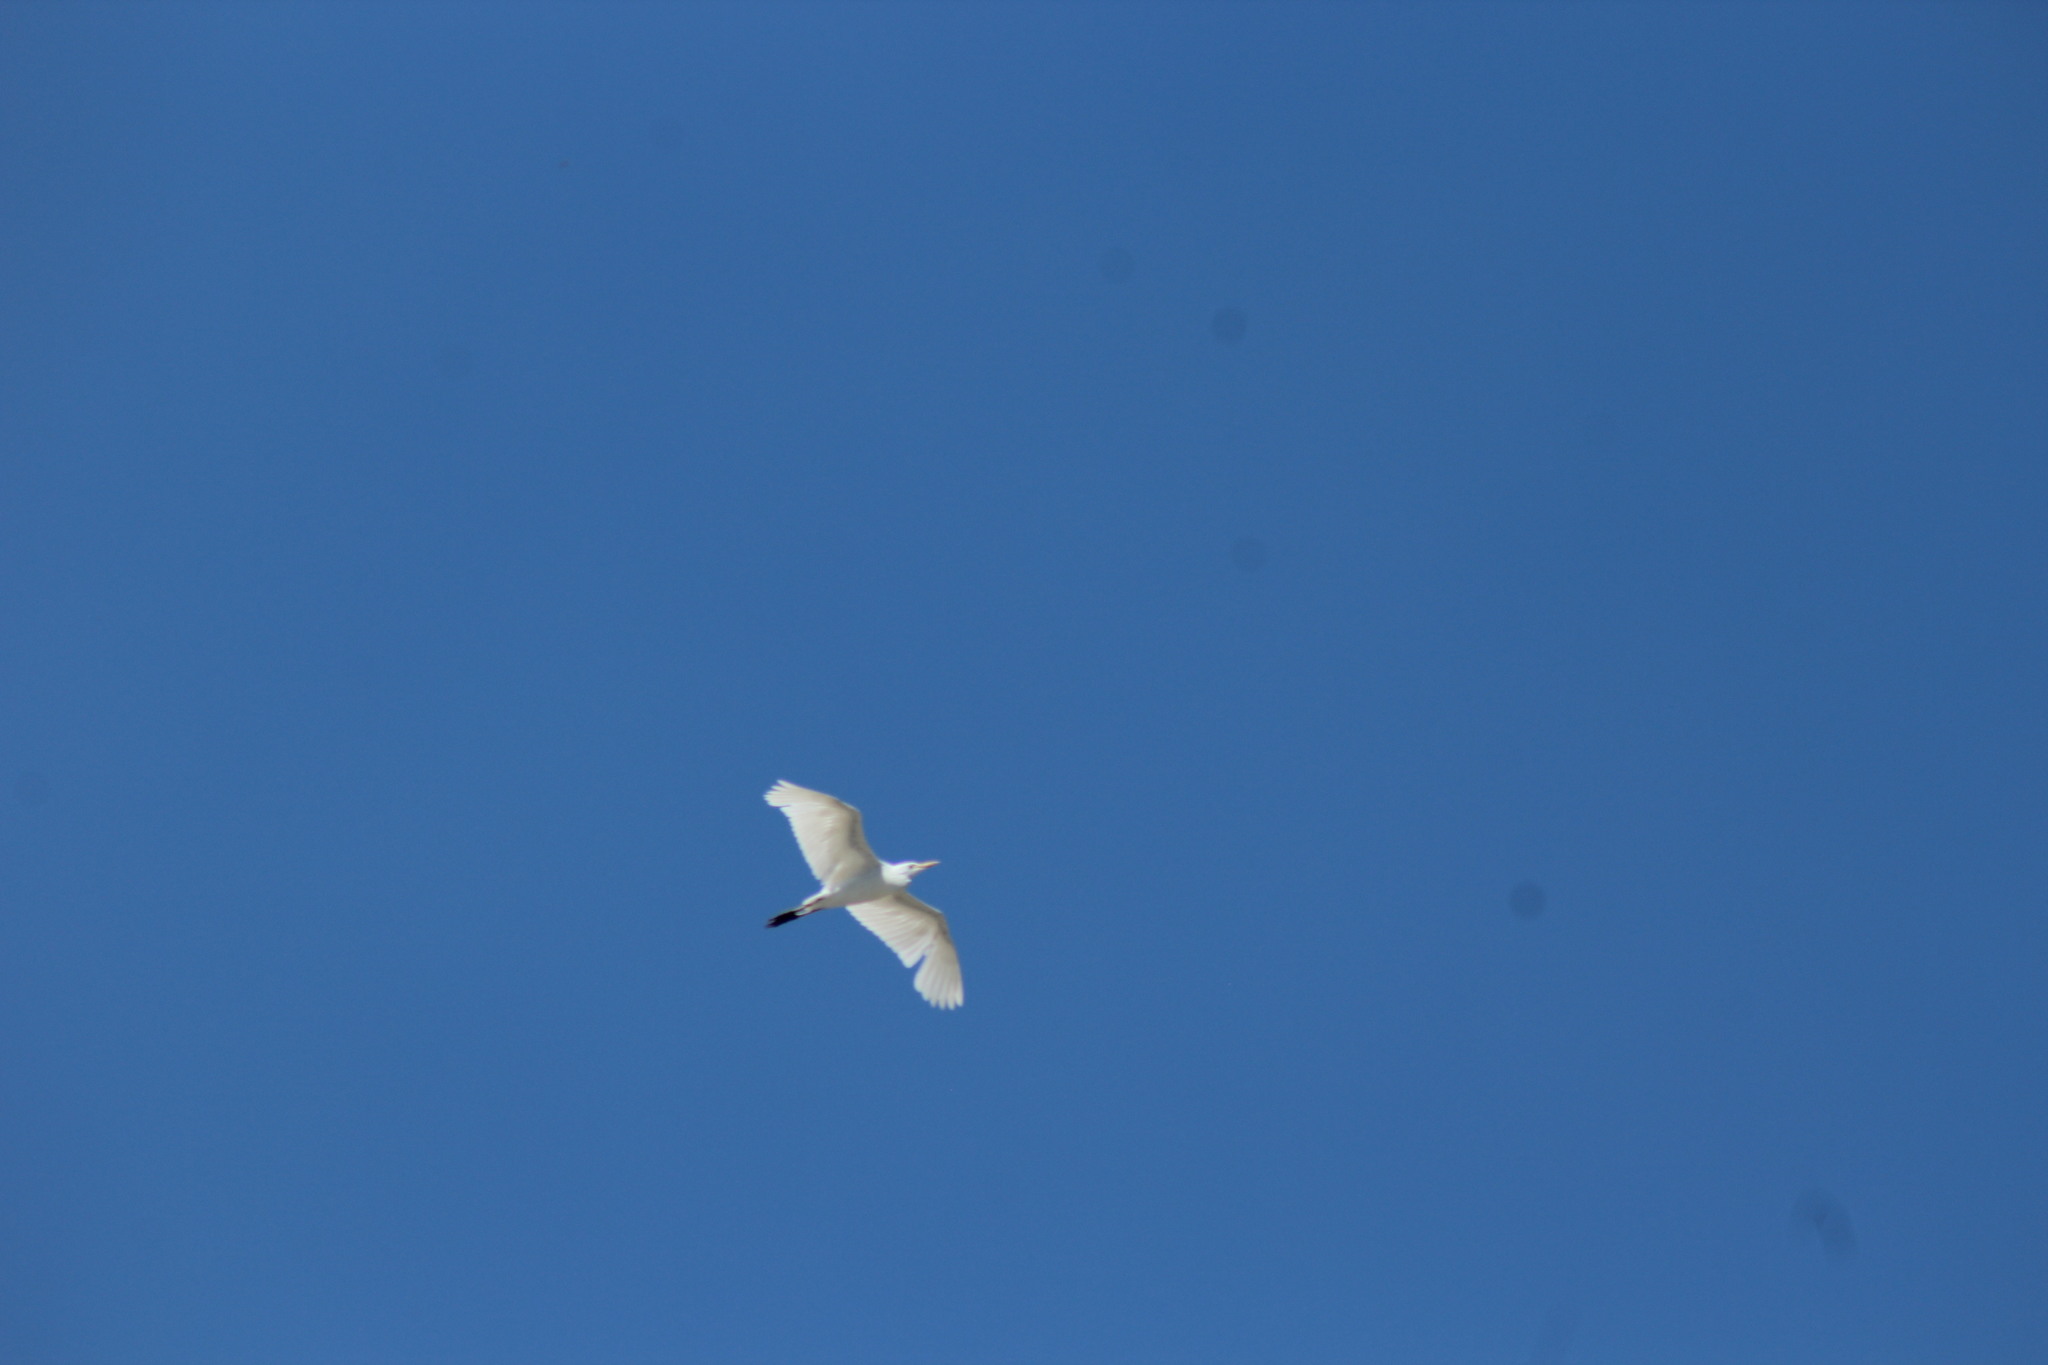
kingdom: Animalia
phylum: Chordata
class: Aves
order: Pelecaniformes
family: Ardeidae
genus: Ardea
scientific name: Ardea alba
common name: Great egret
